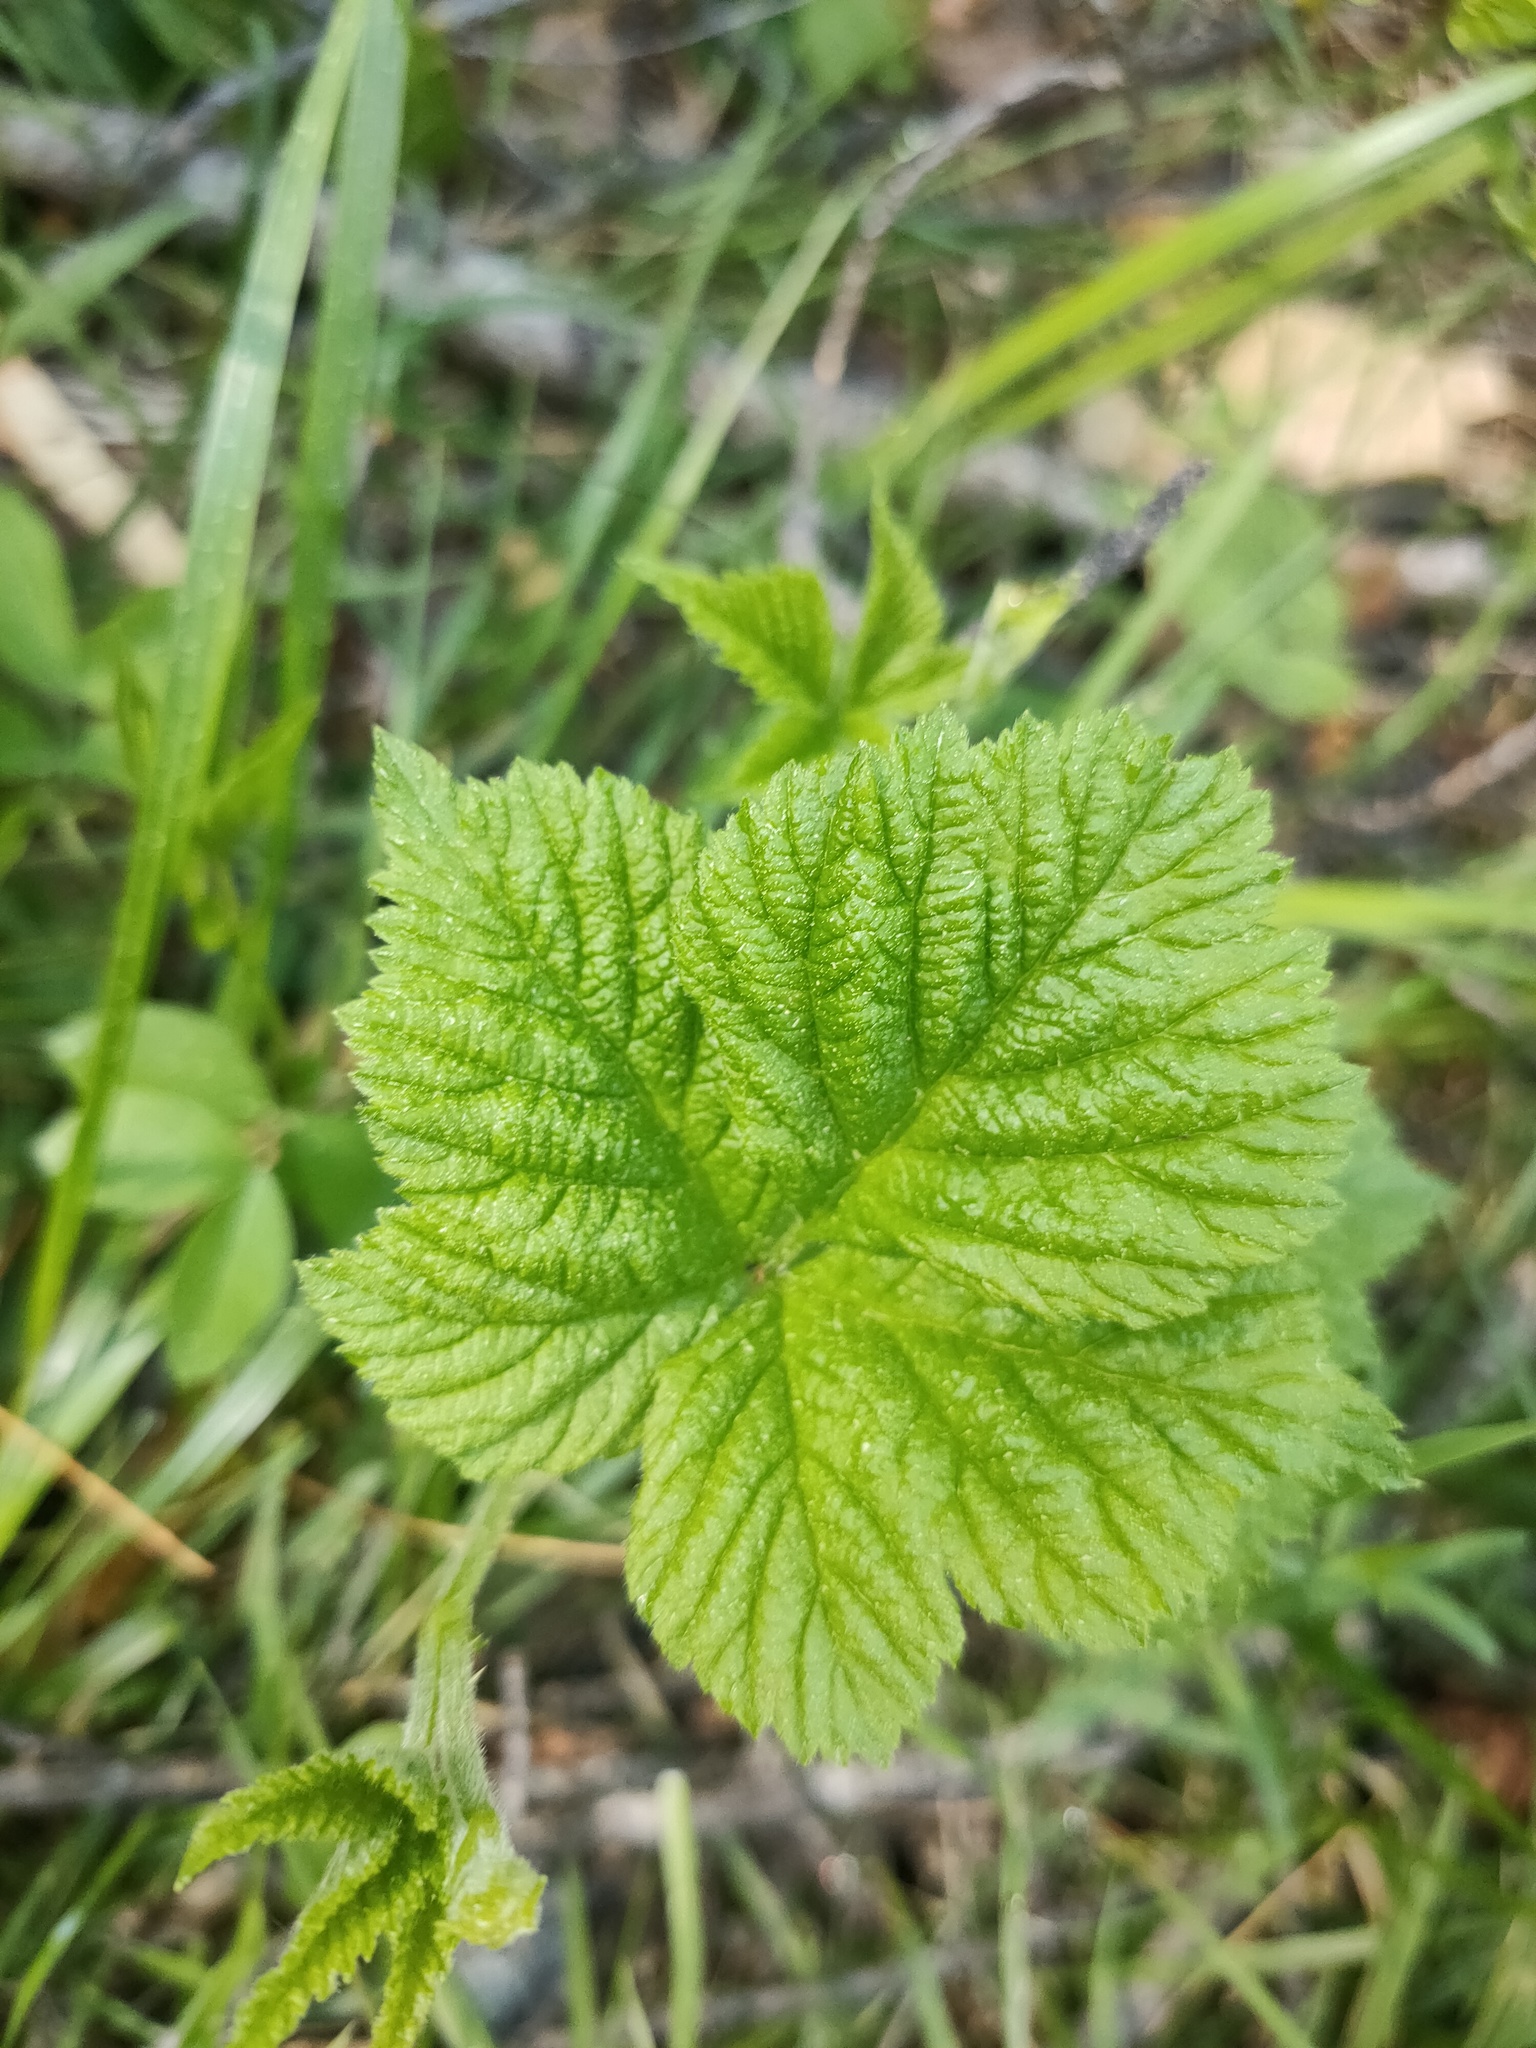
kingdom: Plantae
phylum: Tracheophyta
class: Magnoliopsida
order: Rosales
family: Rosaceae
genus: Rubus
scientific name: Rubus saxatilis
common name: Stone bramble
